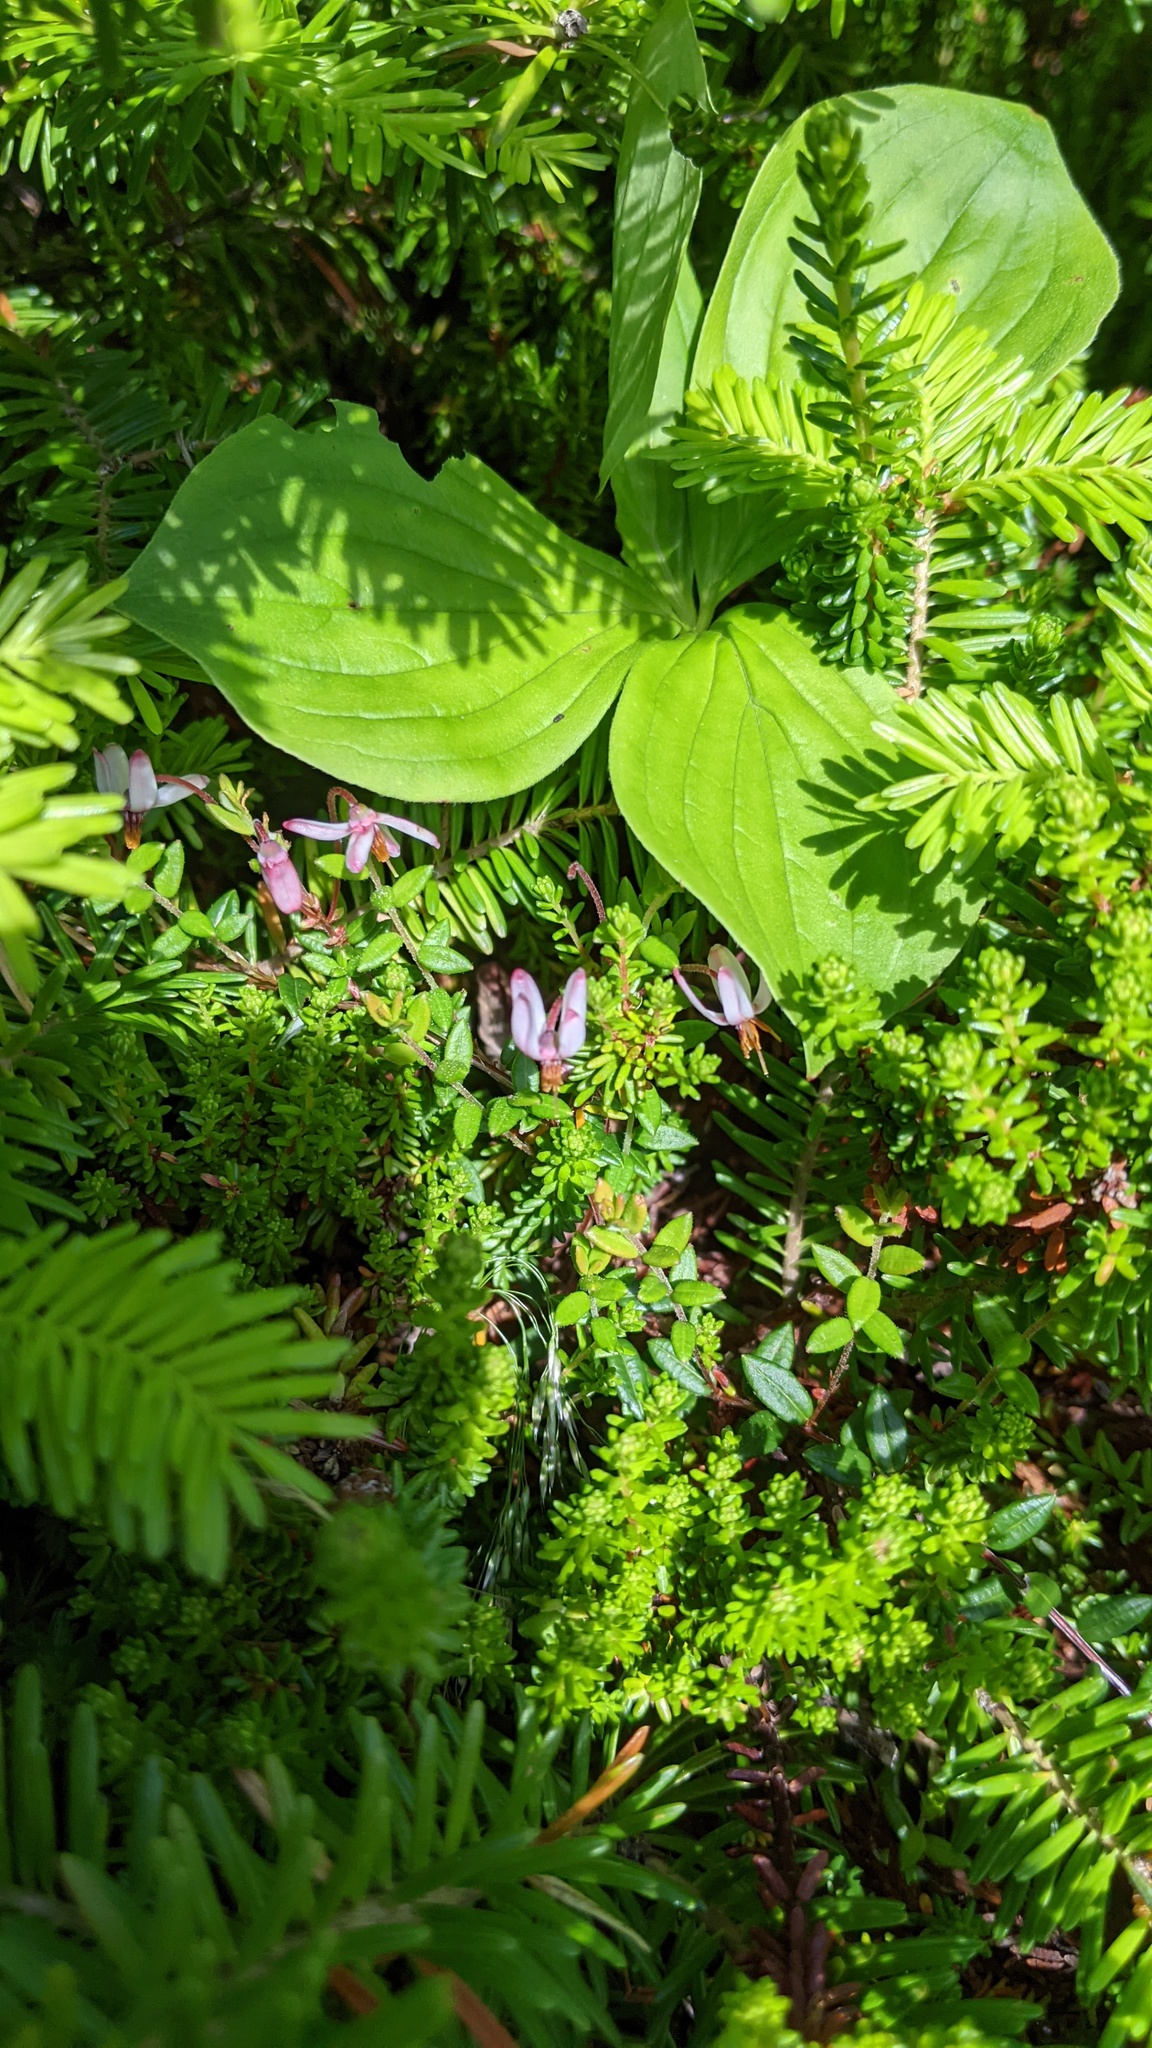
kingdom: Plantae
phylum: Tracheophyta
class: Magnoliopsida
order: Ericales
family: Ericaceae
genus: Vaccinium
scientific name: Vaccinium oxycoccos
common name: Cranberry
